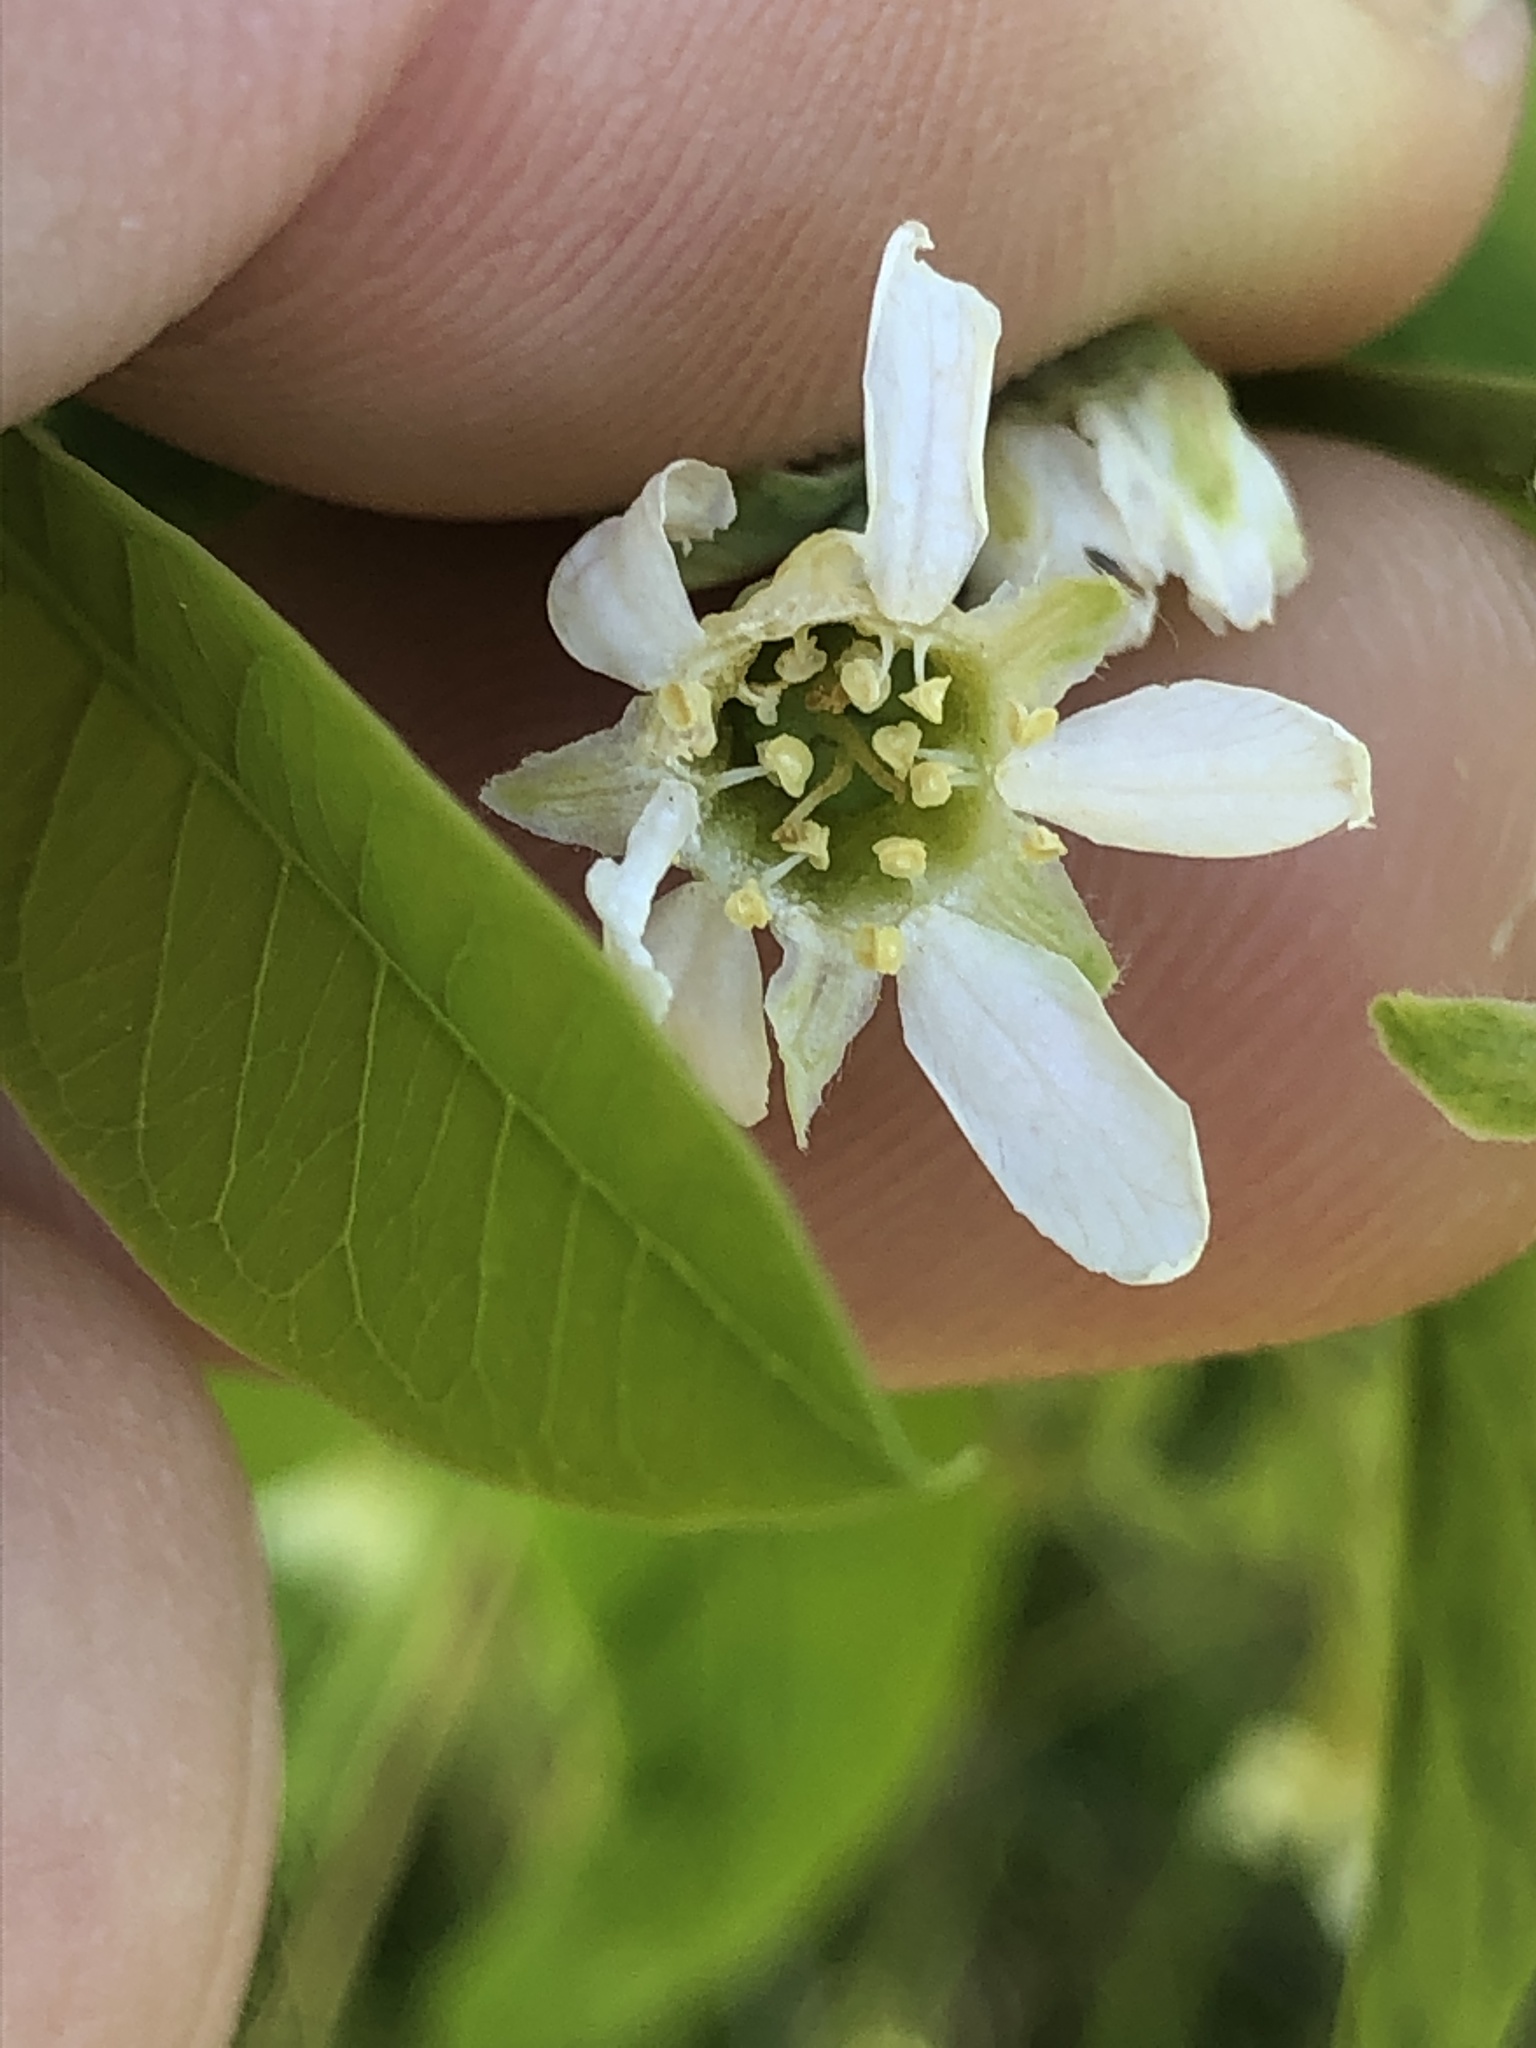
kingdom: Plantae
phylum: Tracheophyta
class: Magnoliopsida
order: Rosales
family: Rosaceae
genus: Oemleria
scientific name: Oemleria cerasiformis
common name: Osoberry
